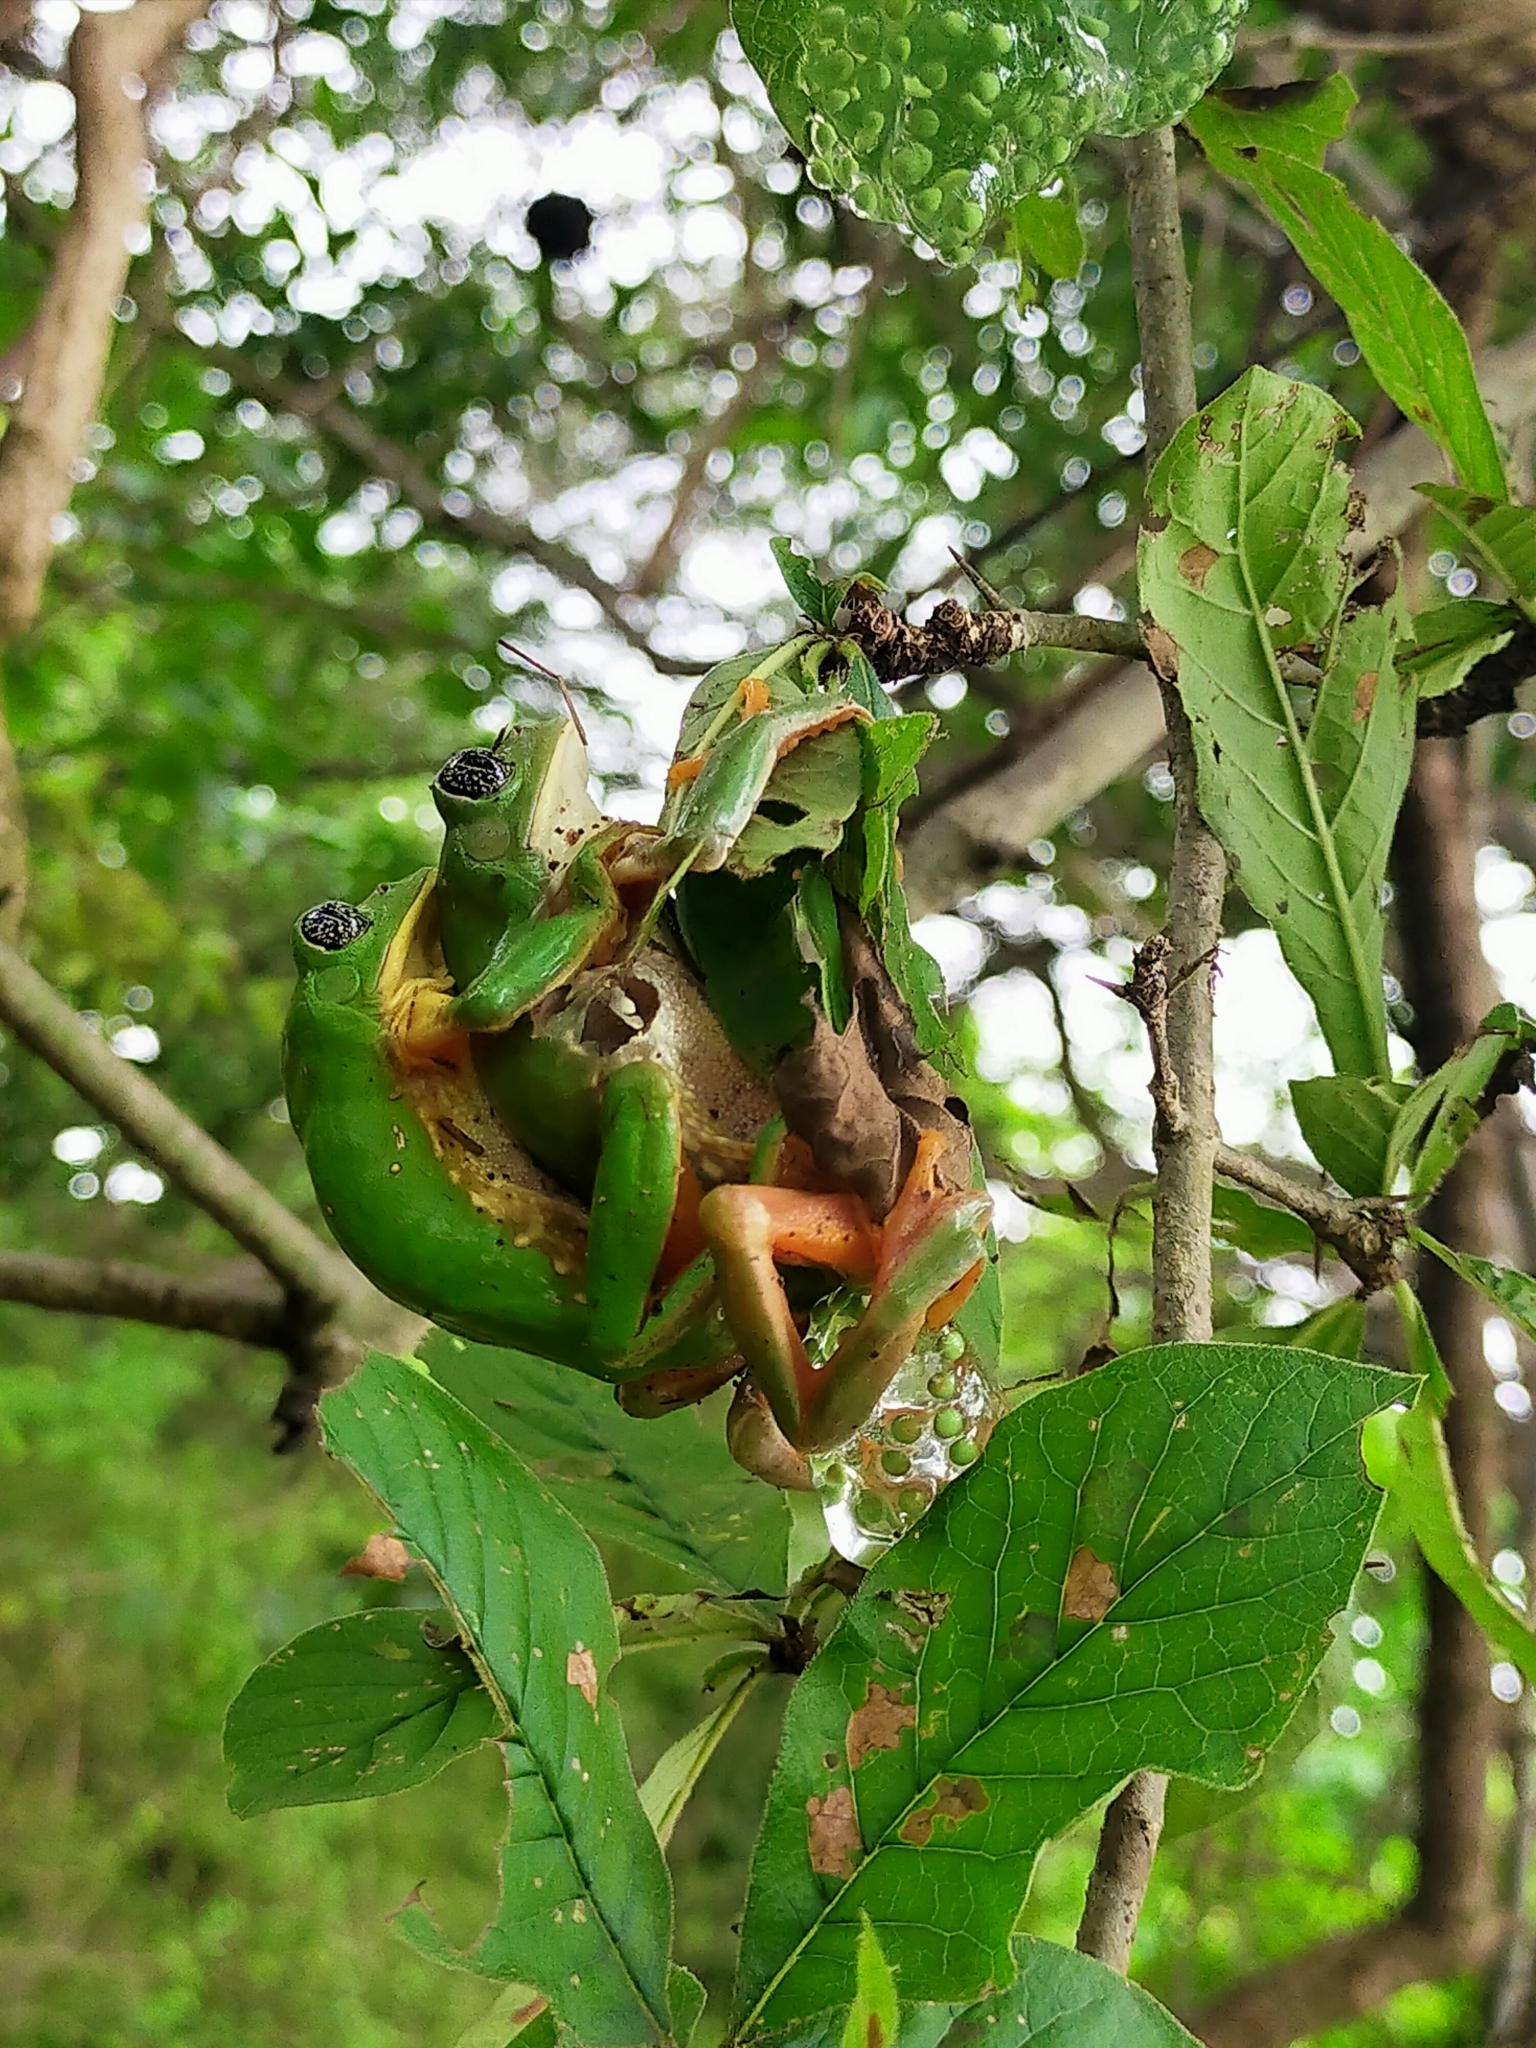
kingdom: Animalia
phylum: Chordata
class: Amphibia
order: Anura
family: Phyllomedusidae
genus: Agalychnis
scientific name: Agalychnis dacnicolor
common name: Mexican giant tree frog
